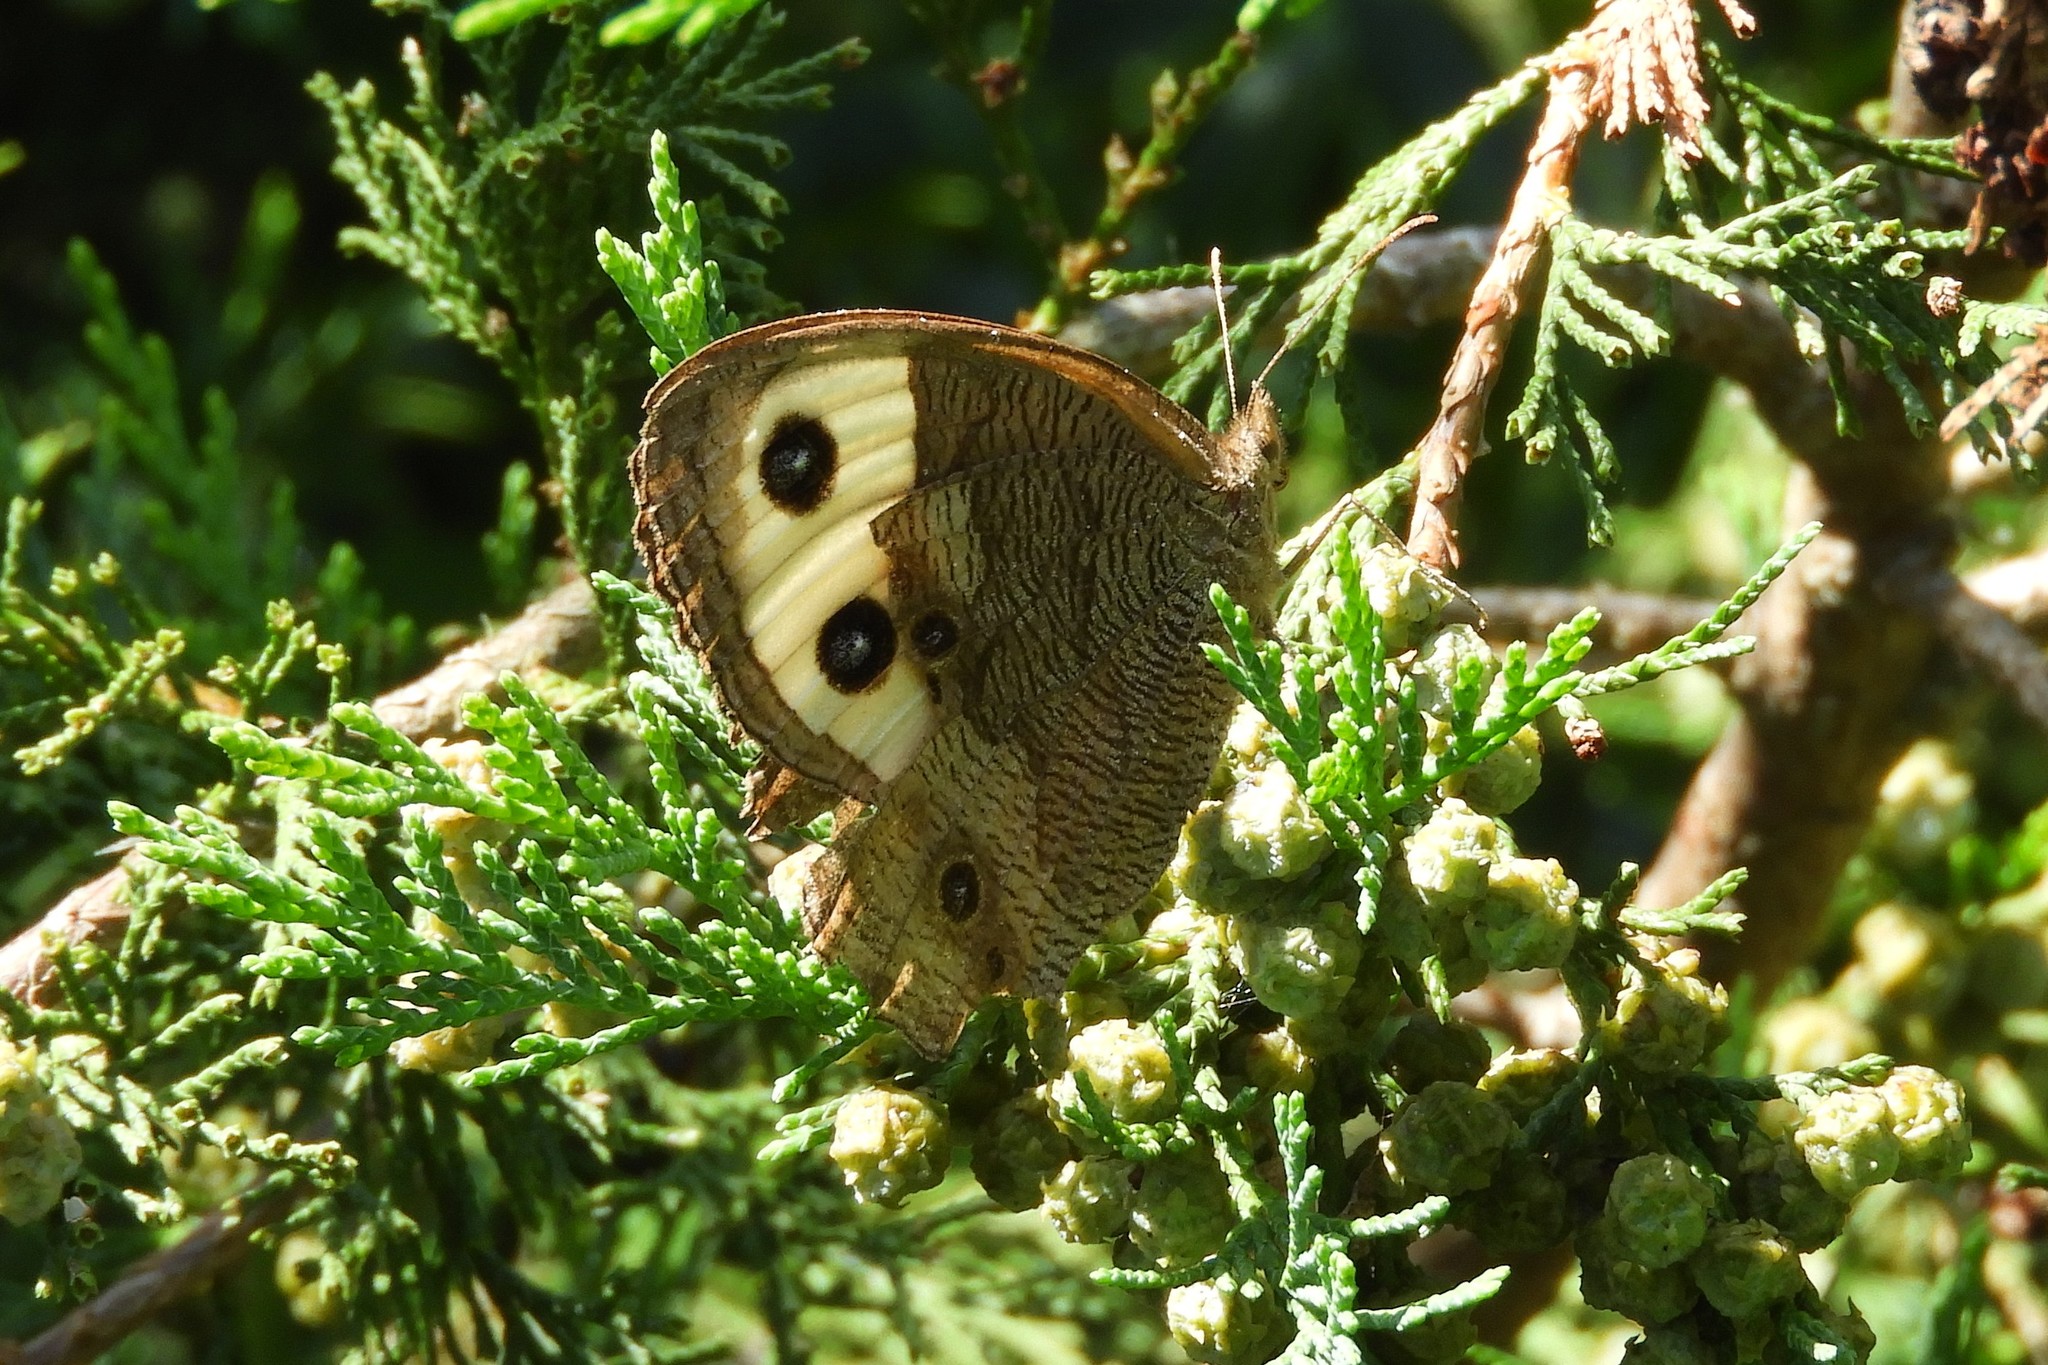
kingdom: Animalia
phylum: Arthropoda
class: Insecta
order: Lepidoptera
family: Nymphalidae
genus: Cercyonis
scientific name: Cercyonis pegala
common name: Common wood-nymph
